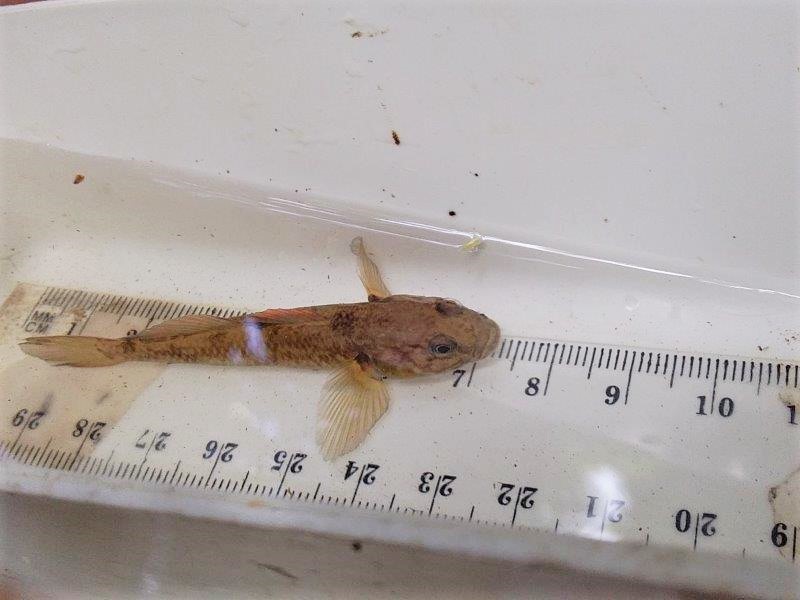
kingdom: Animalia
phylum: Chordata
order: Perciformes
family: Eleotridae
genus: Gobiomorphus
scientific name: Gobiomorphus basalis
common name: Tarndale bully
